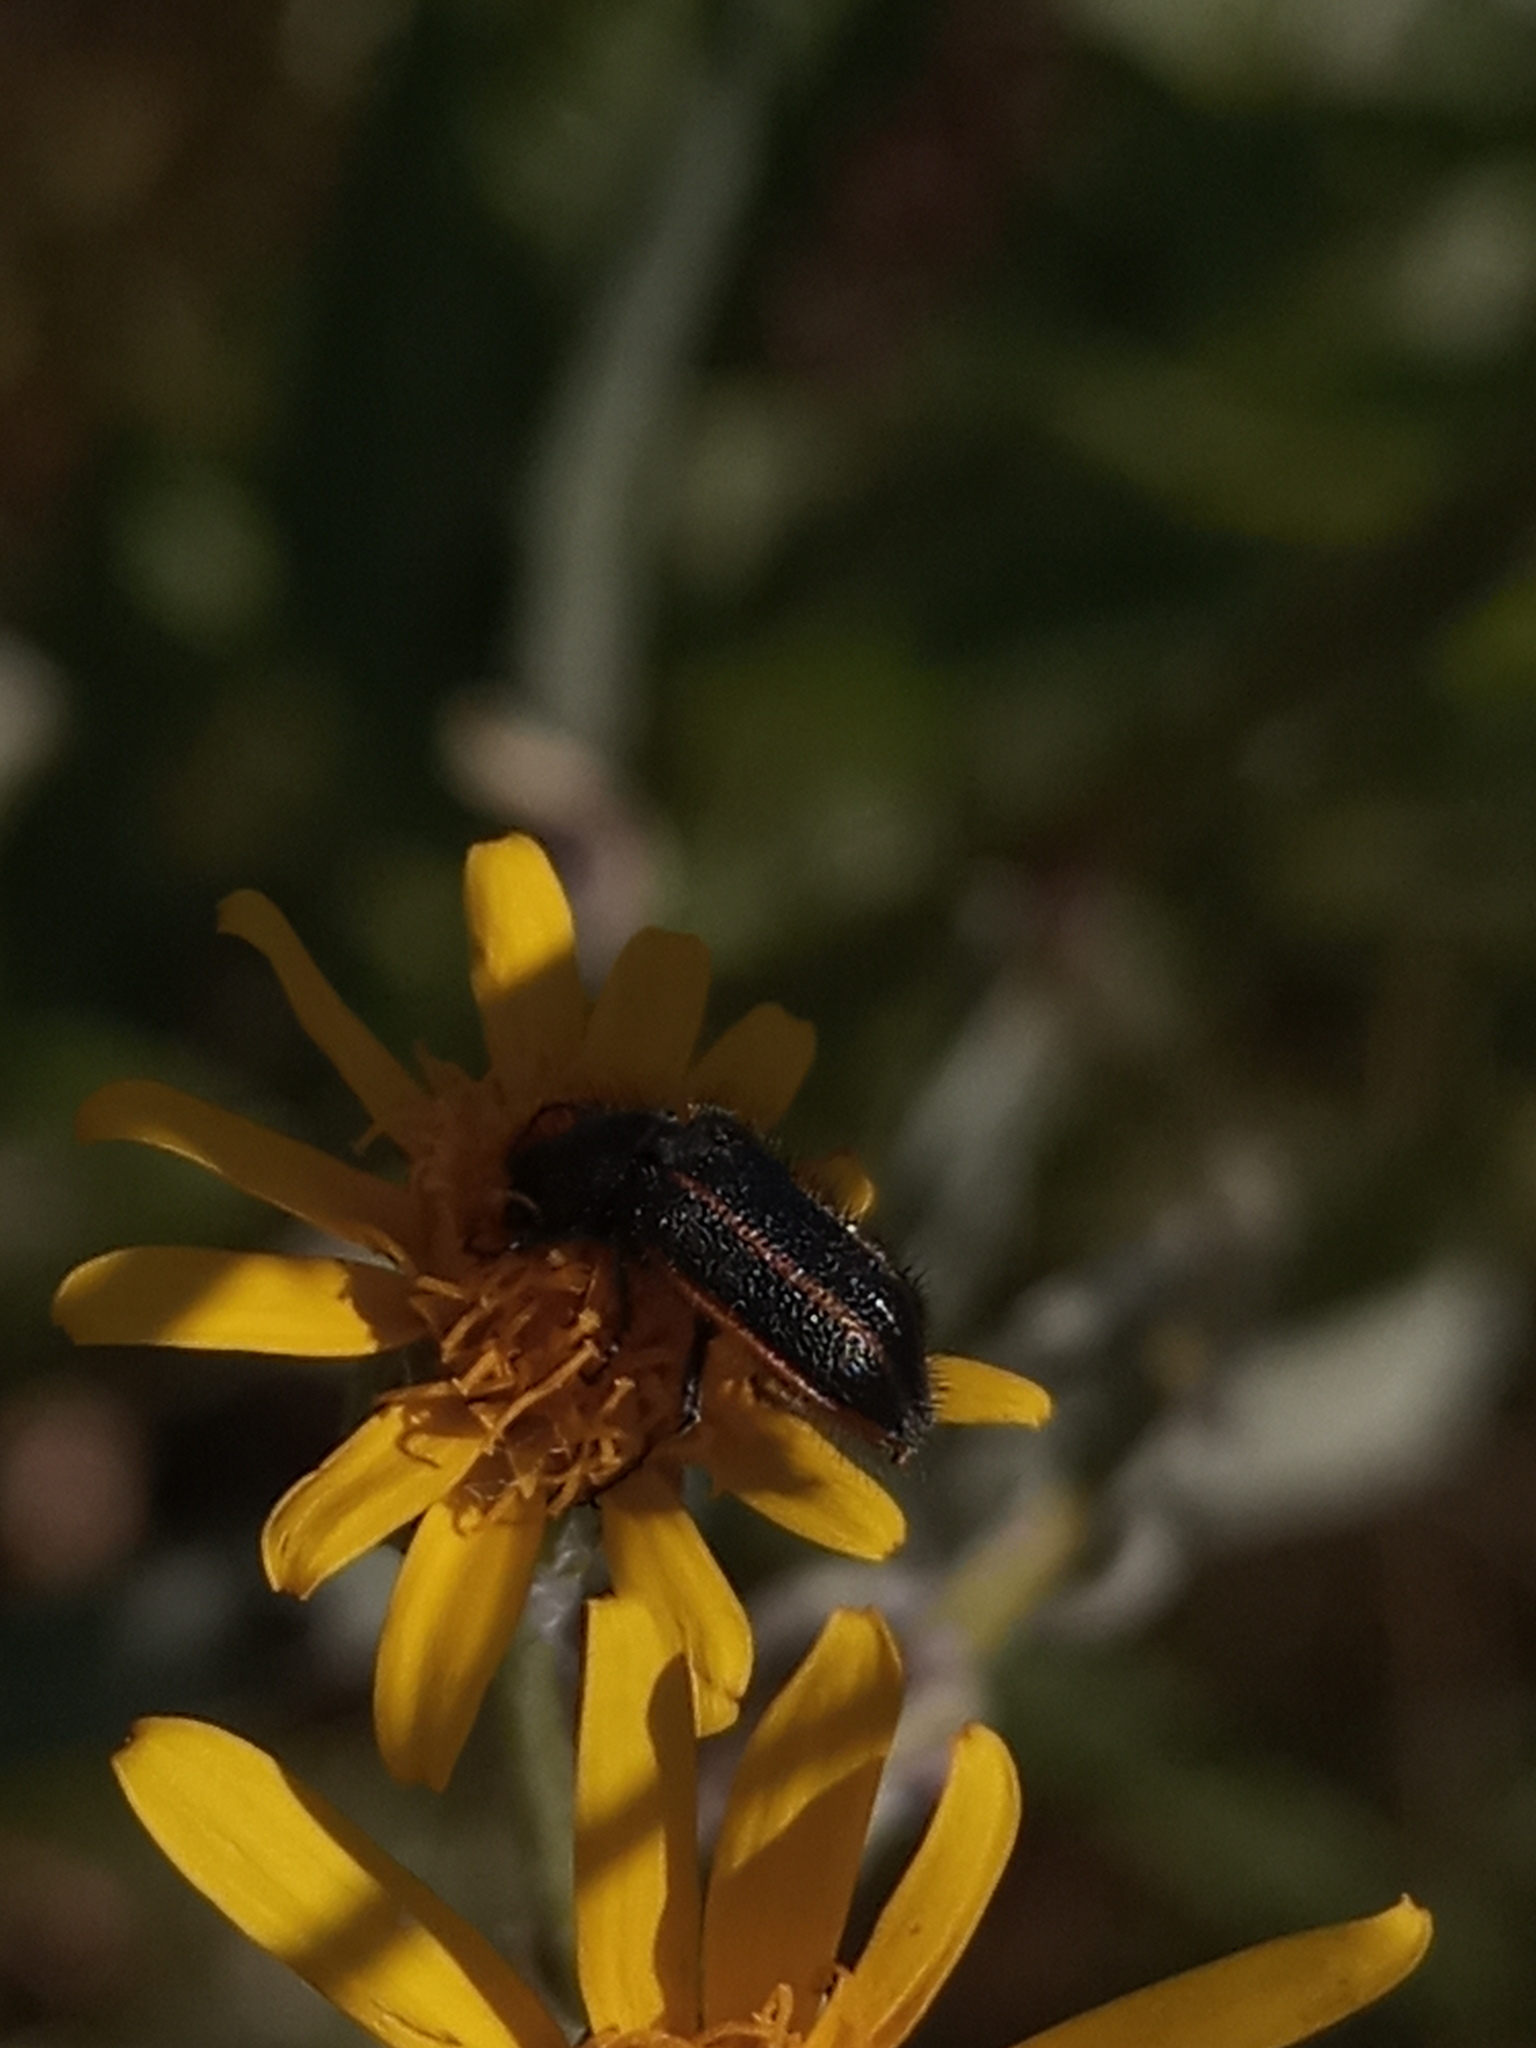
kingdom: Animalia
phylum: Arthropoda
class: Insecta
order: Coleoptera
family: Melyridae
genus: Astylus
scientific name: Astylus
